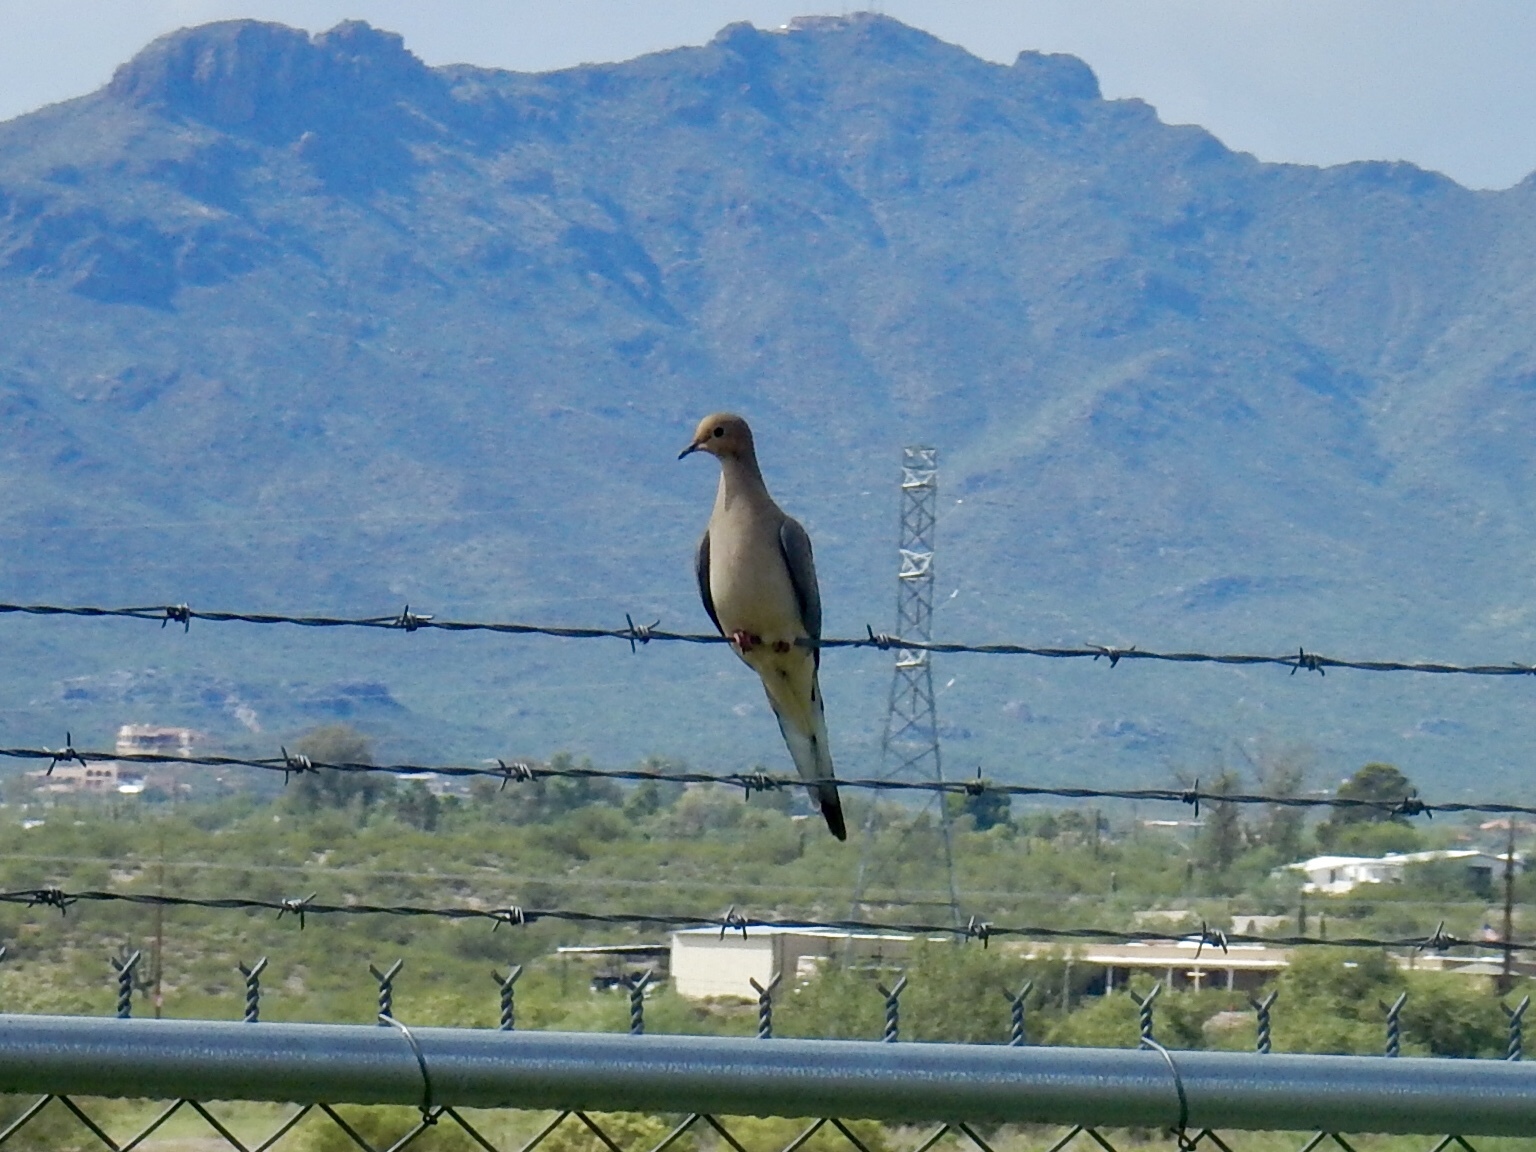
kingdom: Animalia
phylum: Chordata
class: Aves
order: Columbiformes
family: Columbidae
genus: Zenaida
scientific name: Zenaida macroura
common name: Mourning dove
